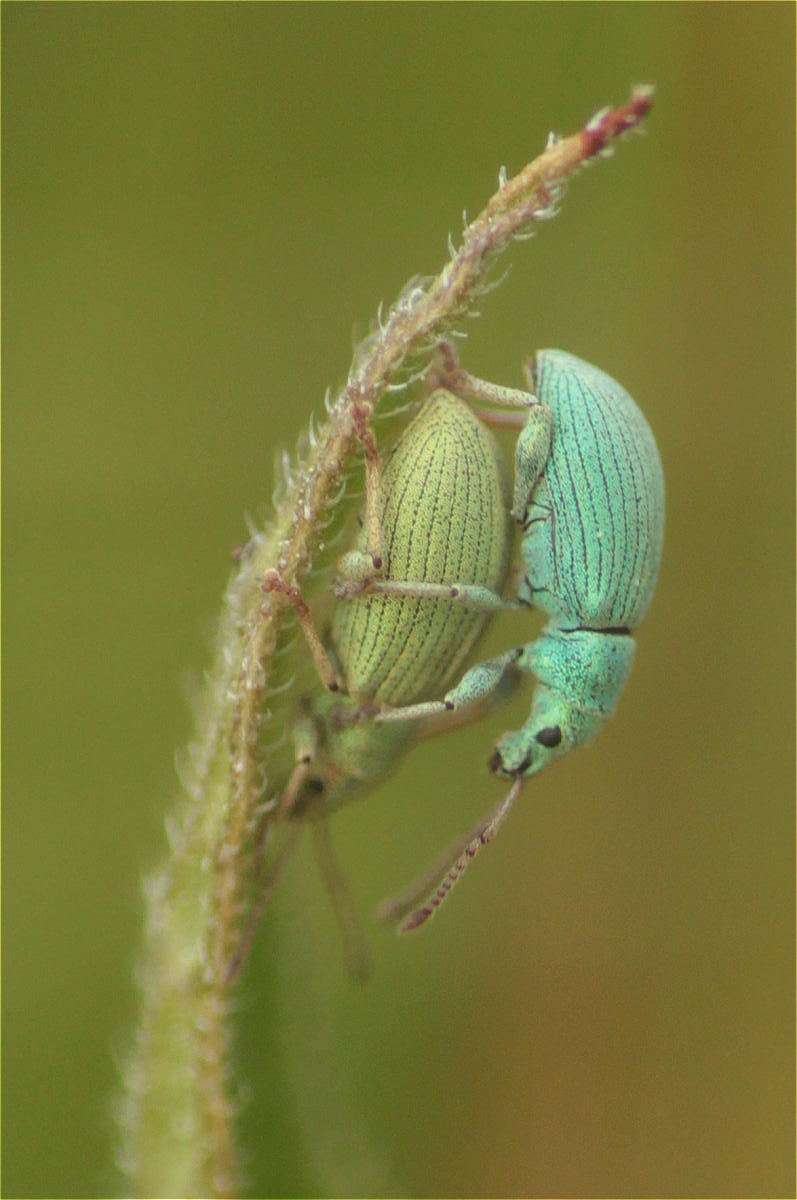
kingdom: Animalia
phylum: Arthropoda
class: Insecta
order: Coleoptera
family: Curculionidae
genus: Phyllobius
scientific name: Phyllobius virideaeris
